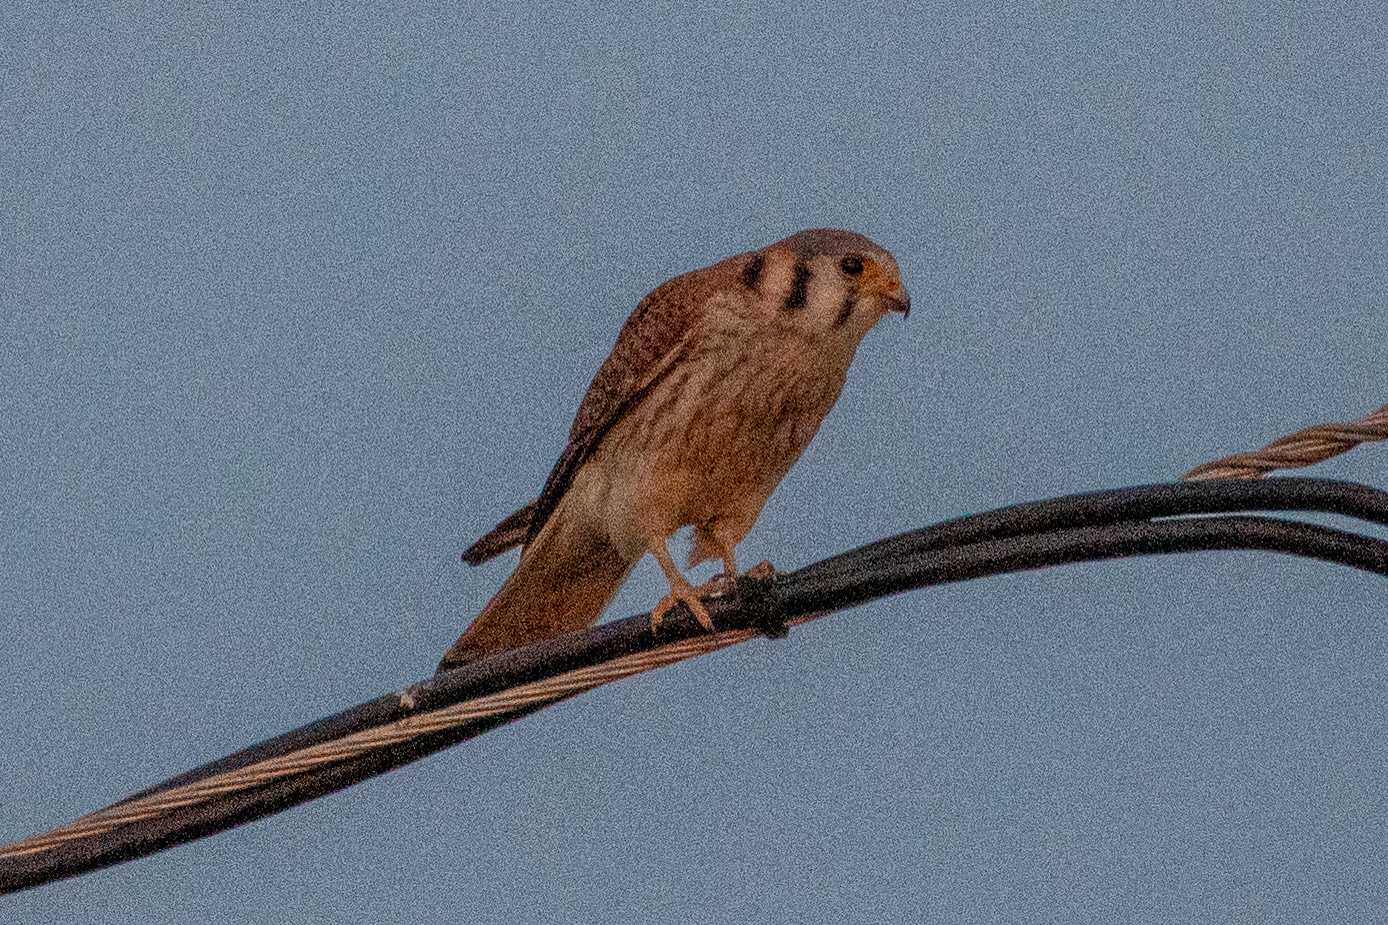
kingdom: Animalia
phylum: Chordata
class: Aves
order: Falconiformes
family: Falconidae
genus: Falco
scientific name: Falco sparverius
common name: American kestrel
